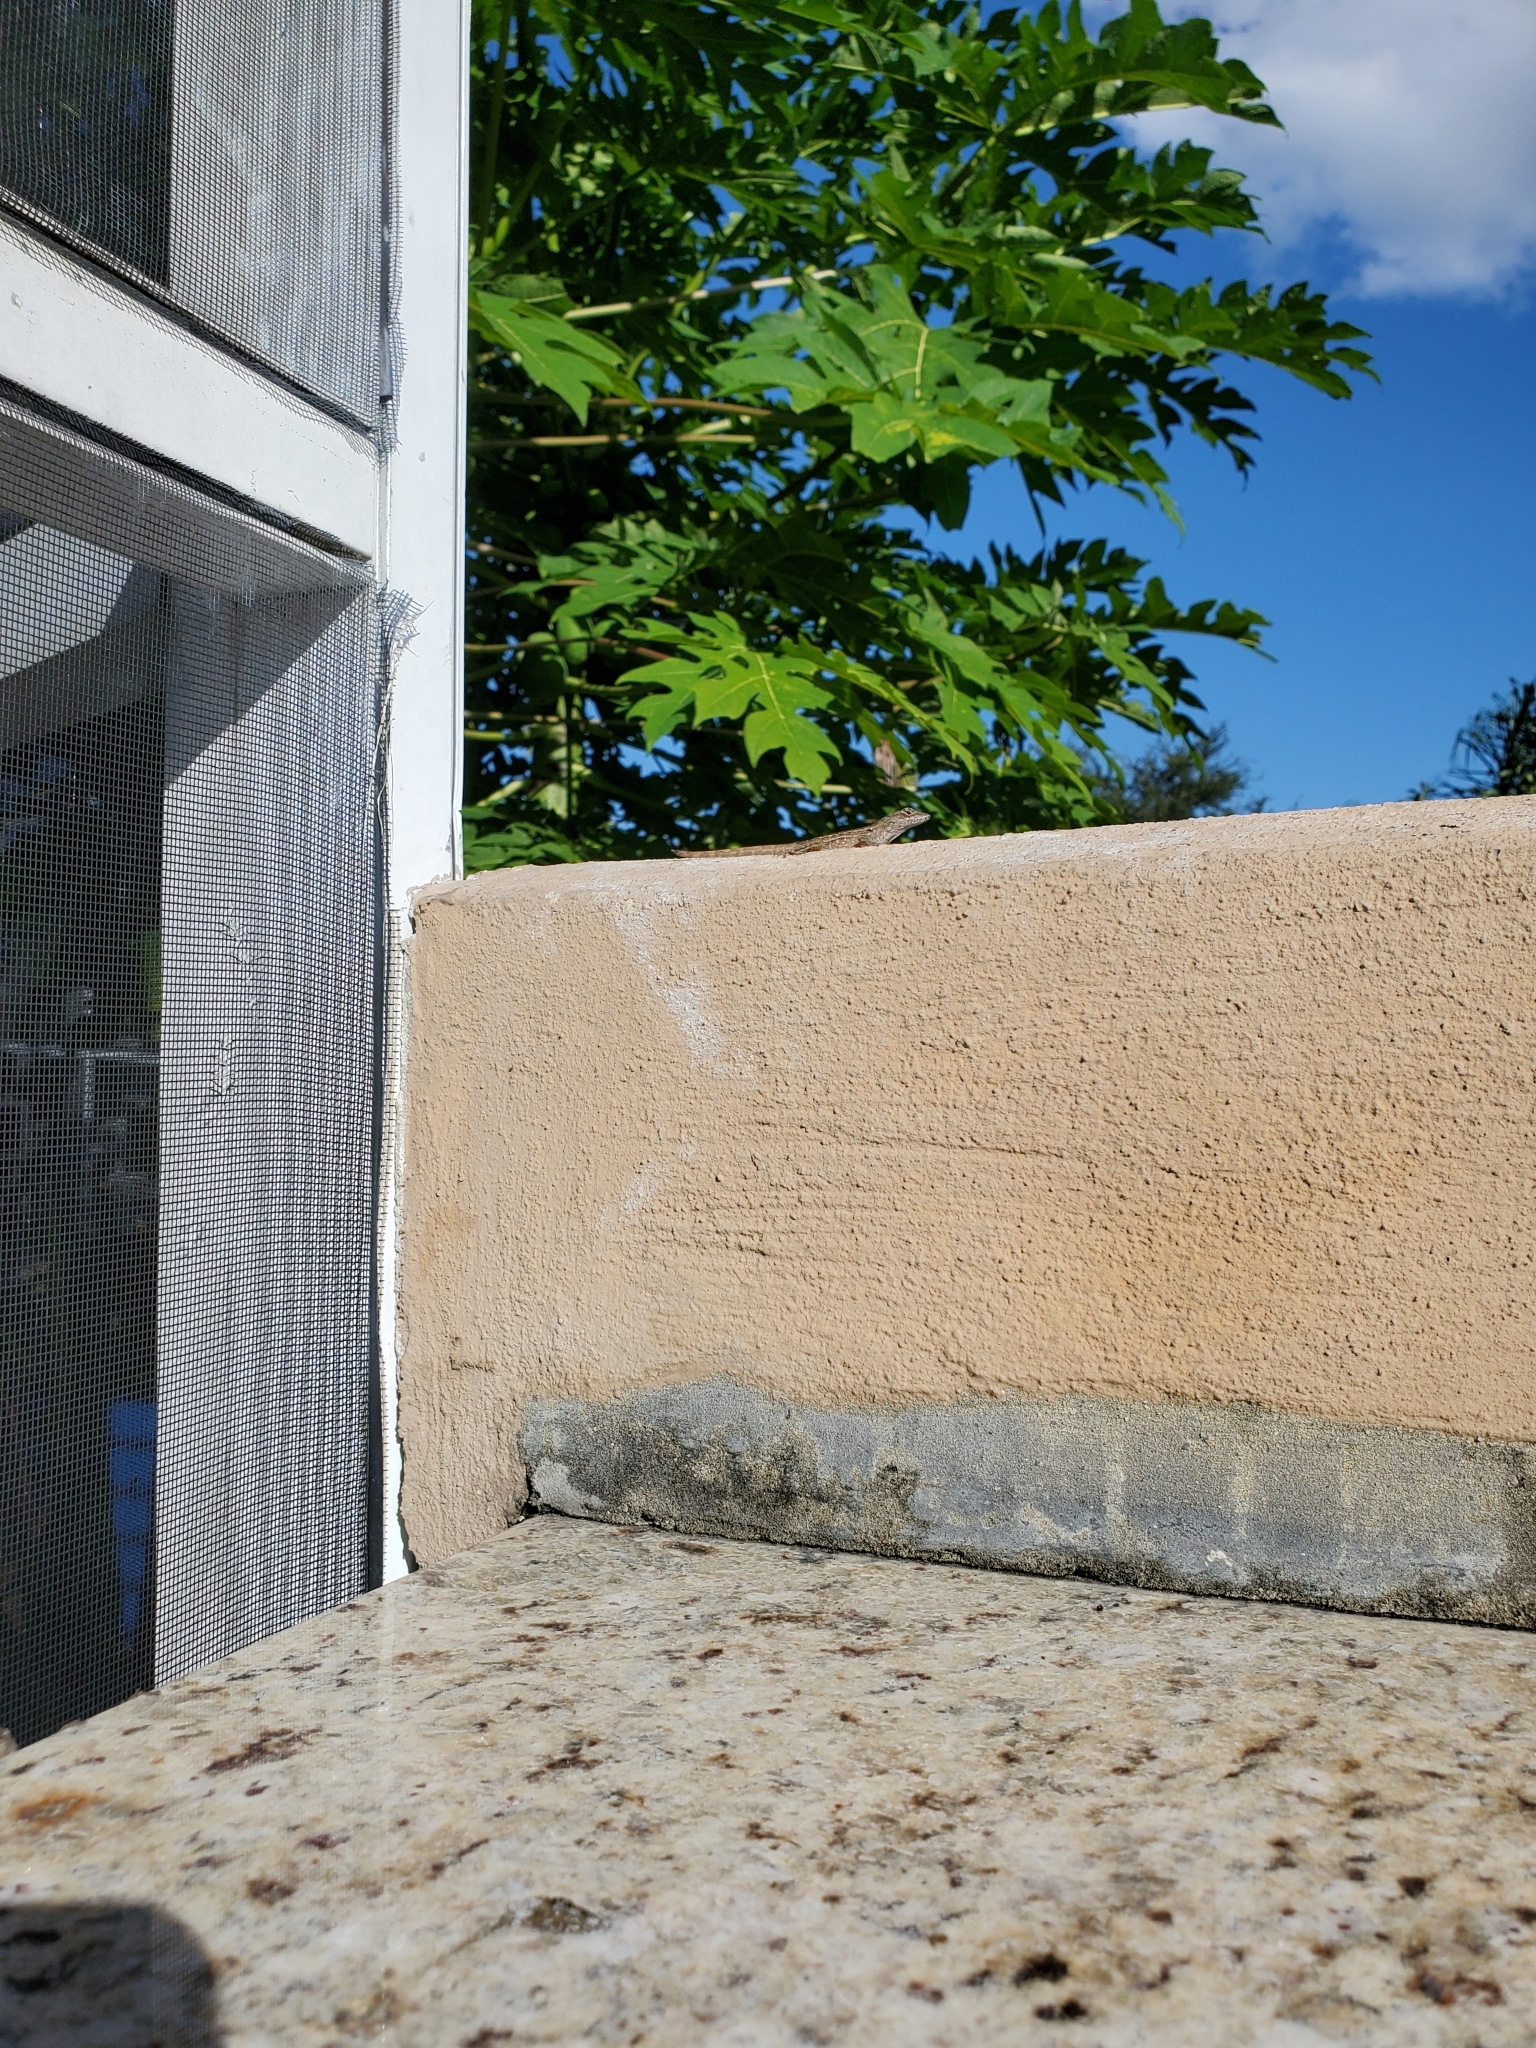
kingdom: Animalia
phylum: Chordata
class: Squamata
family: Dactyloidae
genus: Anolis
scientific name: Anolis sagrei
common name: Brown anole
